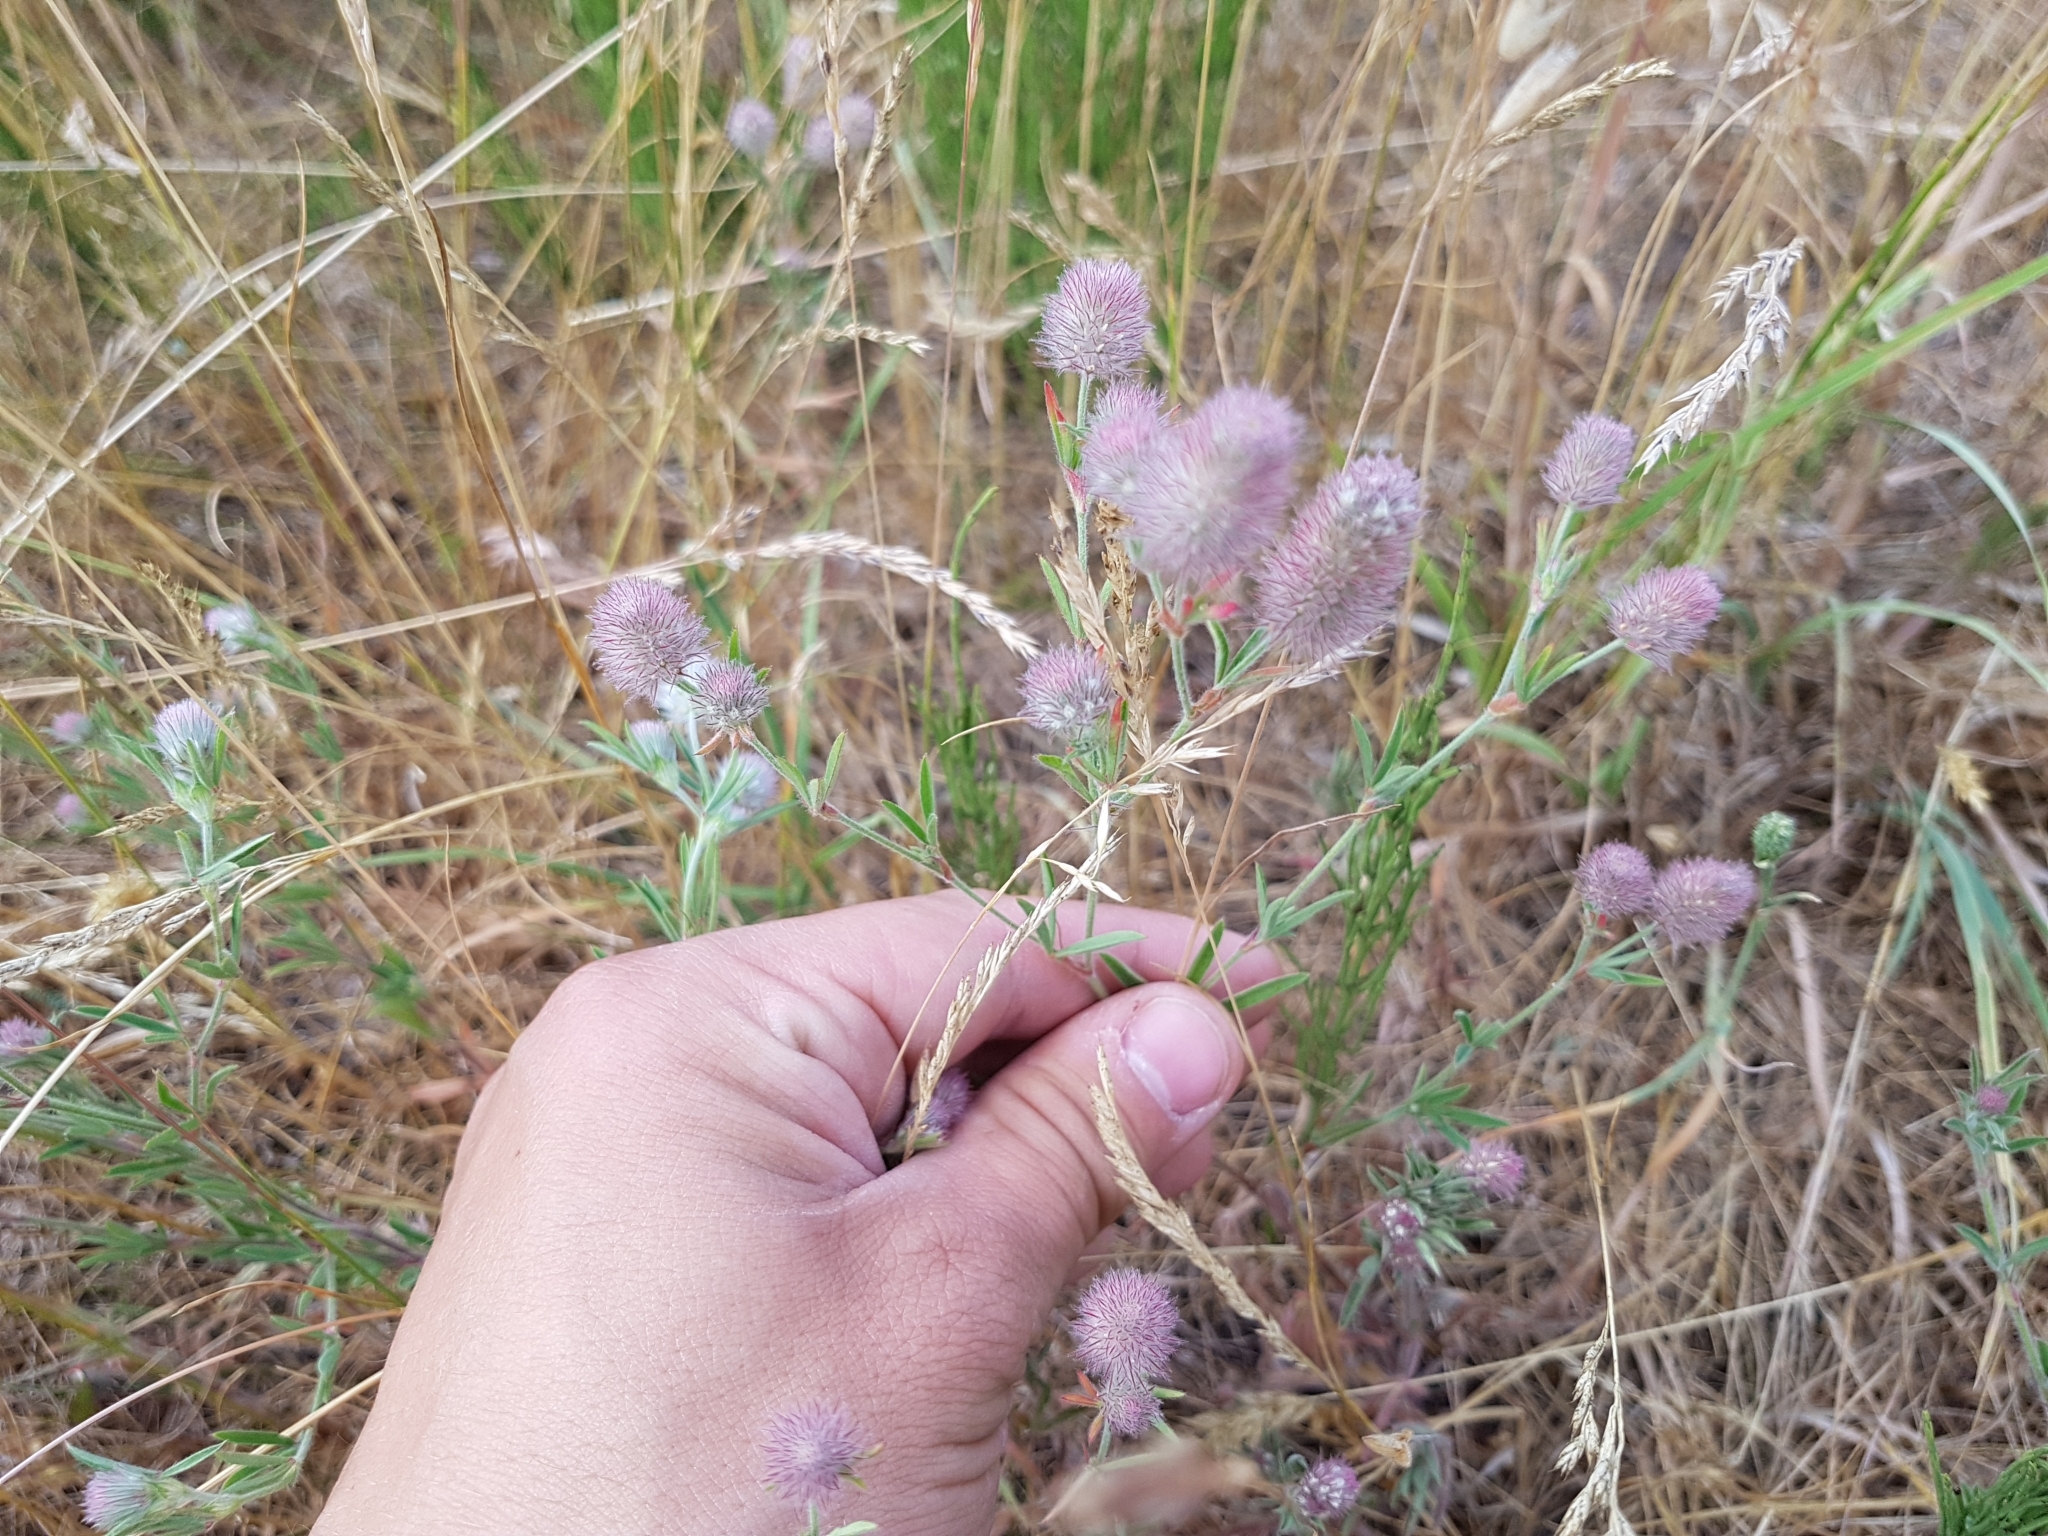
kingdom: Plantae
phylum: Tracheophyta
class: Magnoliopsida
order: Fabales
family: Fabaceae
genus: Trifolium
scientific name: Trifolium arvense
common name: Hare's-foot clover
